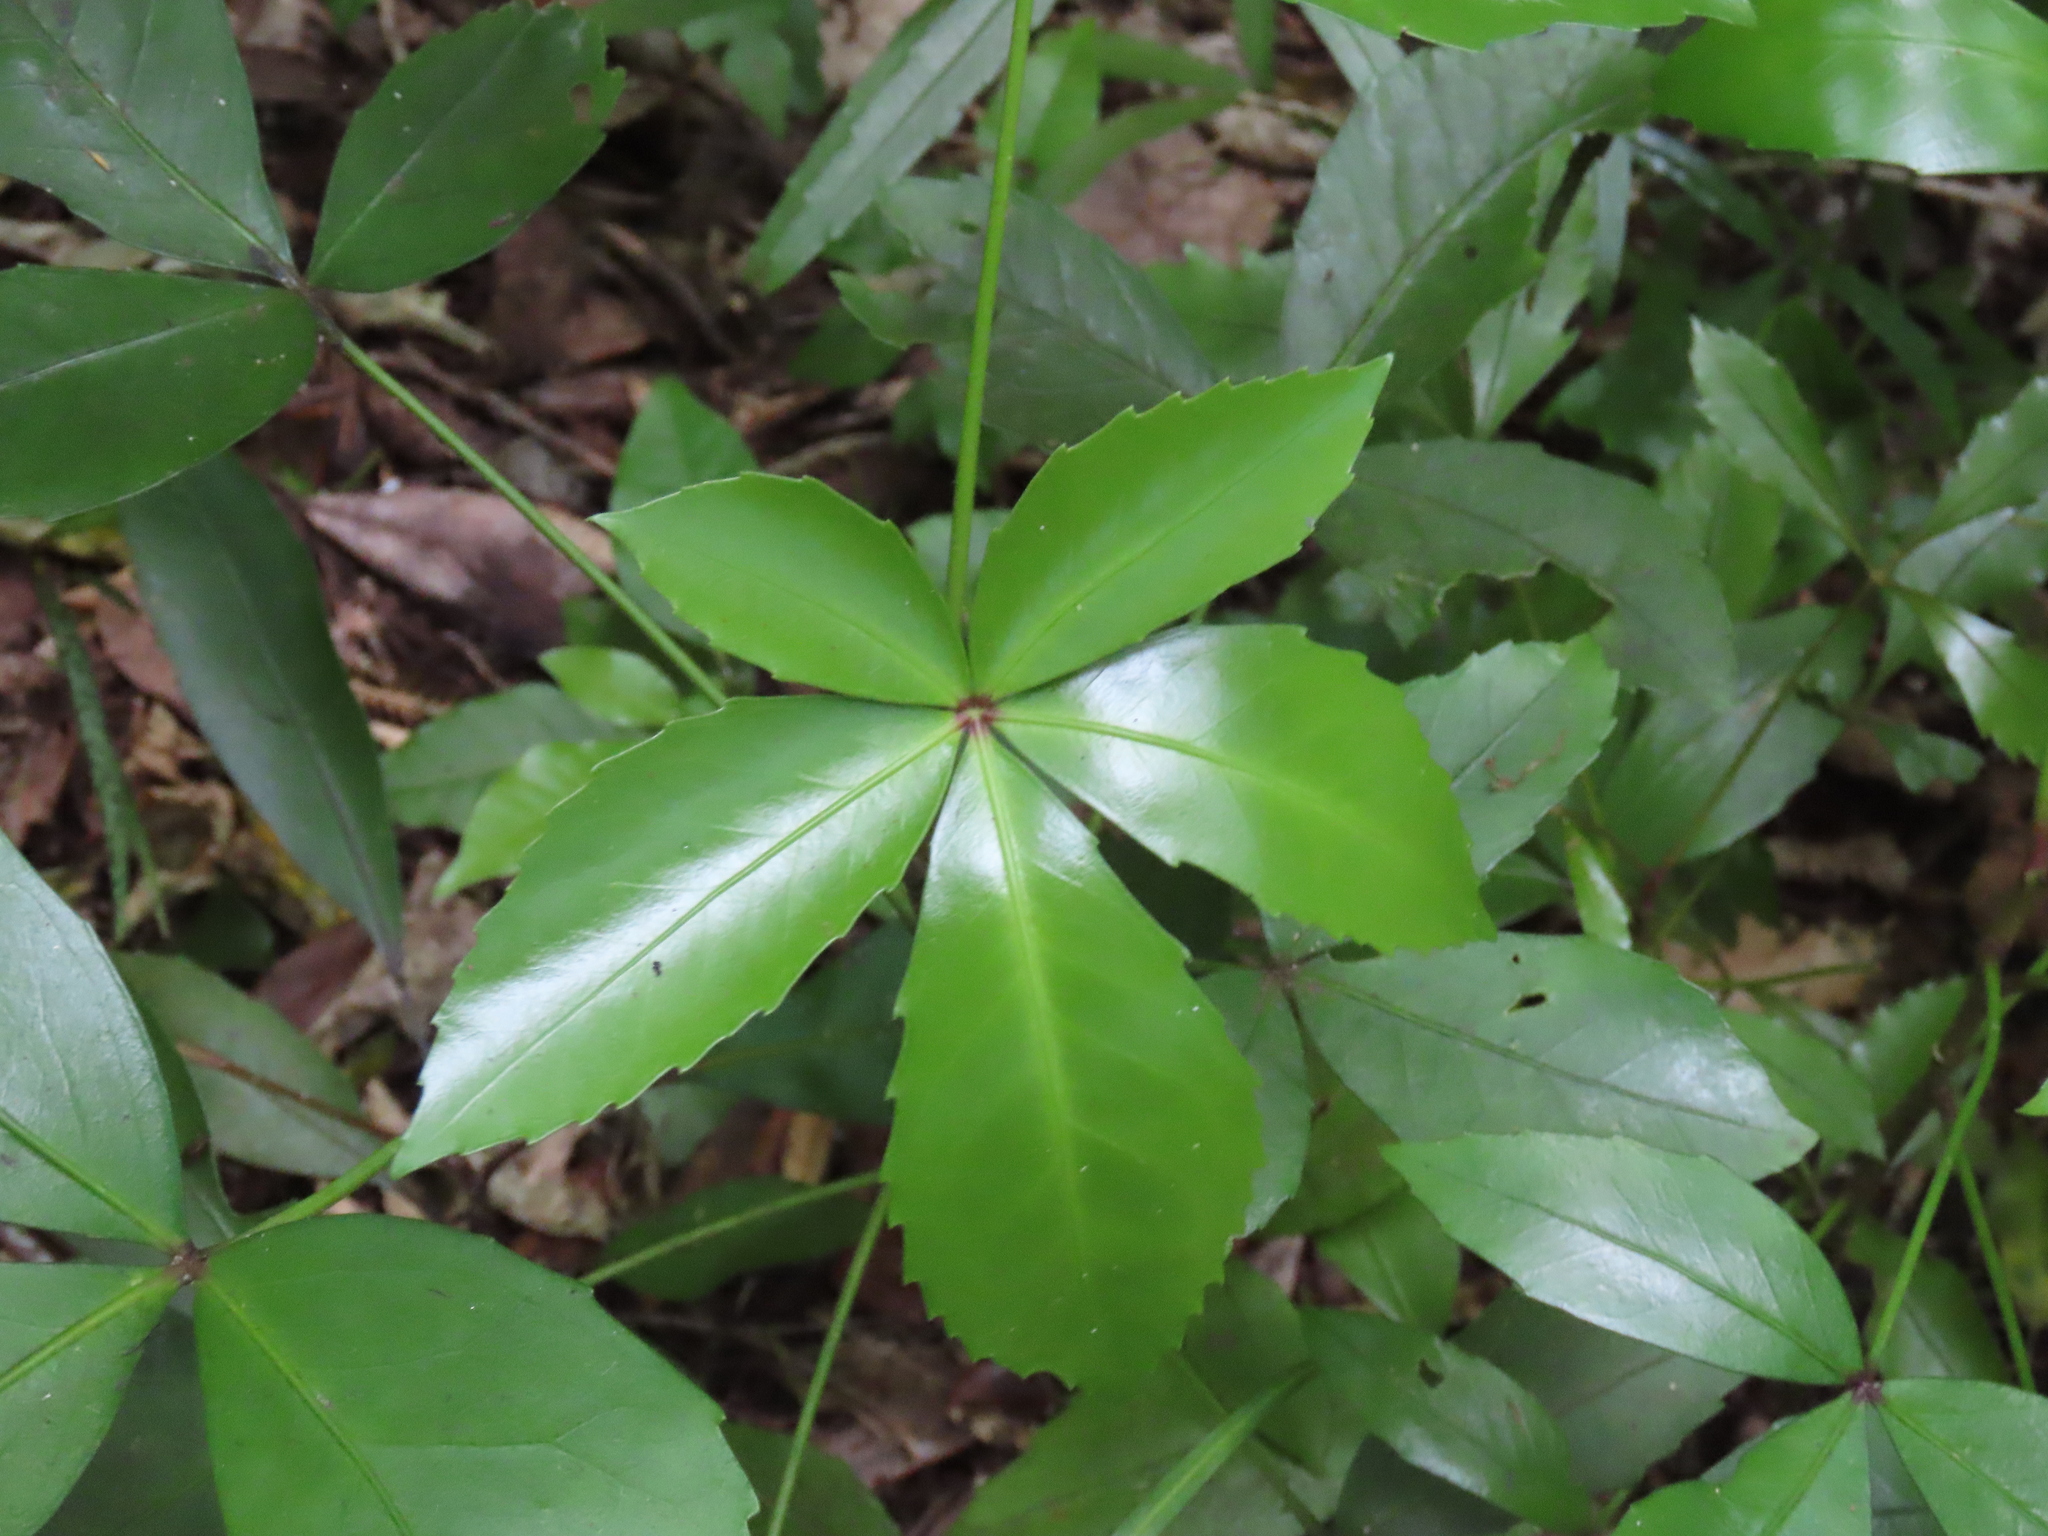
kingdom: Plantae
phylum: Tracheophyta
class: Magnoliopsida
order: Apiales
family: Araliaceae
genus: Pseudopanax
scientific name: Pseudopanax lessonii
